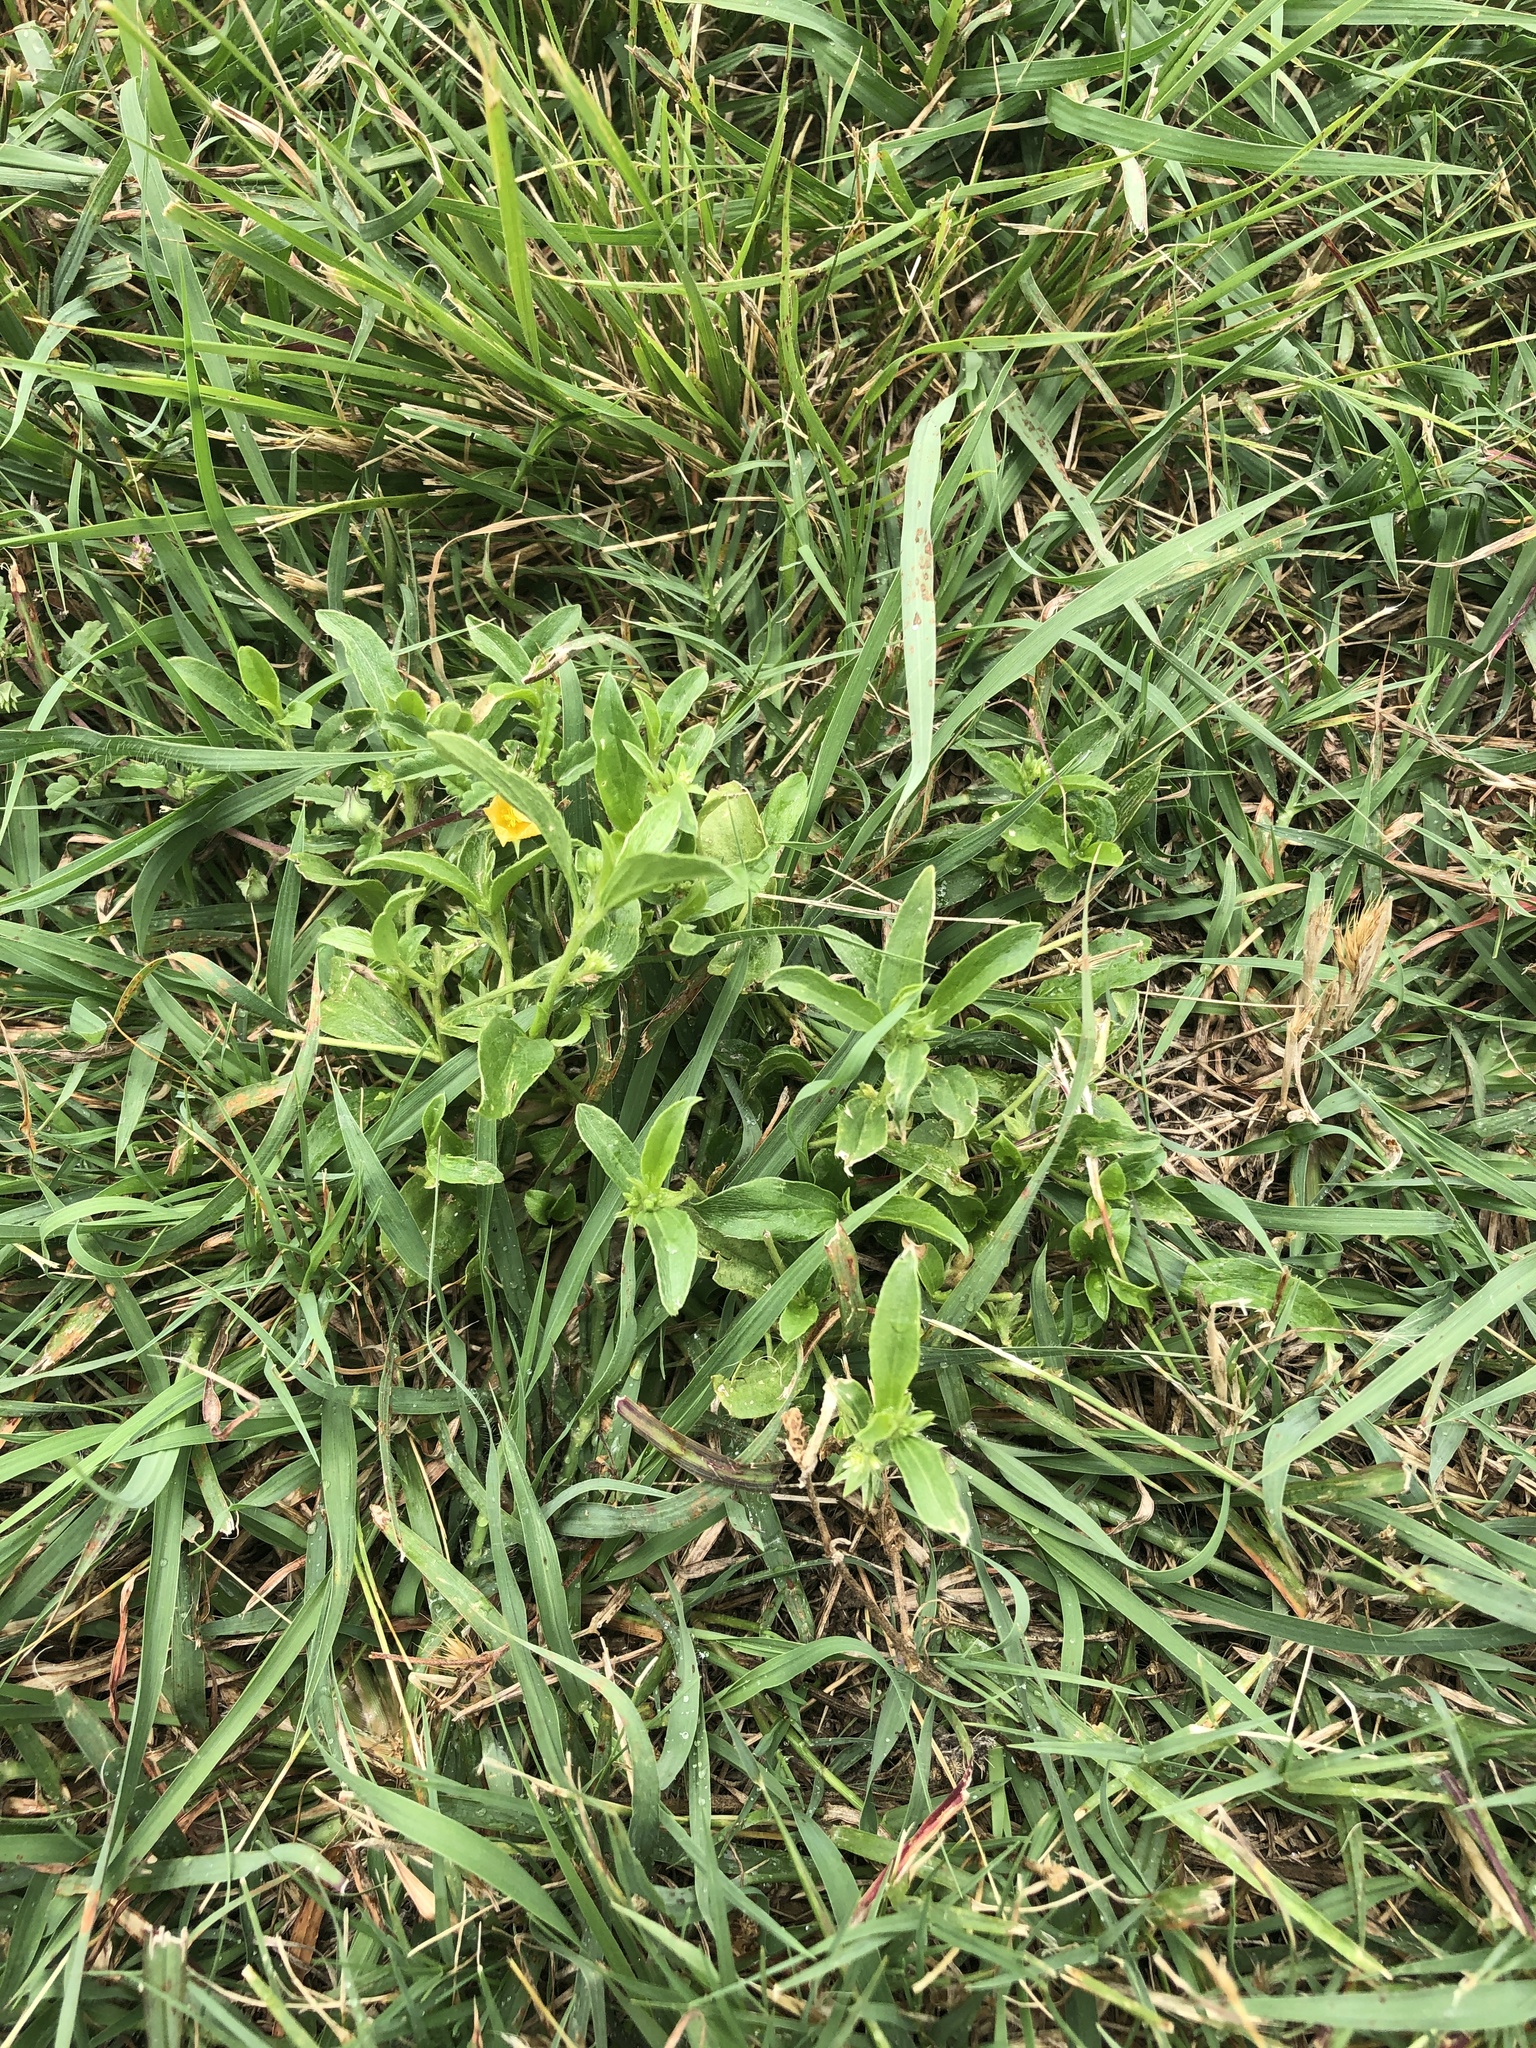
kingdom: Plantae
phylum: Tracheophyta
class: Magnoliopsida
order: Malpighiales
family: Euphorbiaceae
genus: Ditaxis
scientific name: Ditaxis humilis
